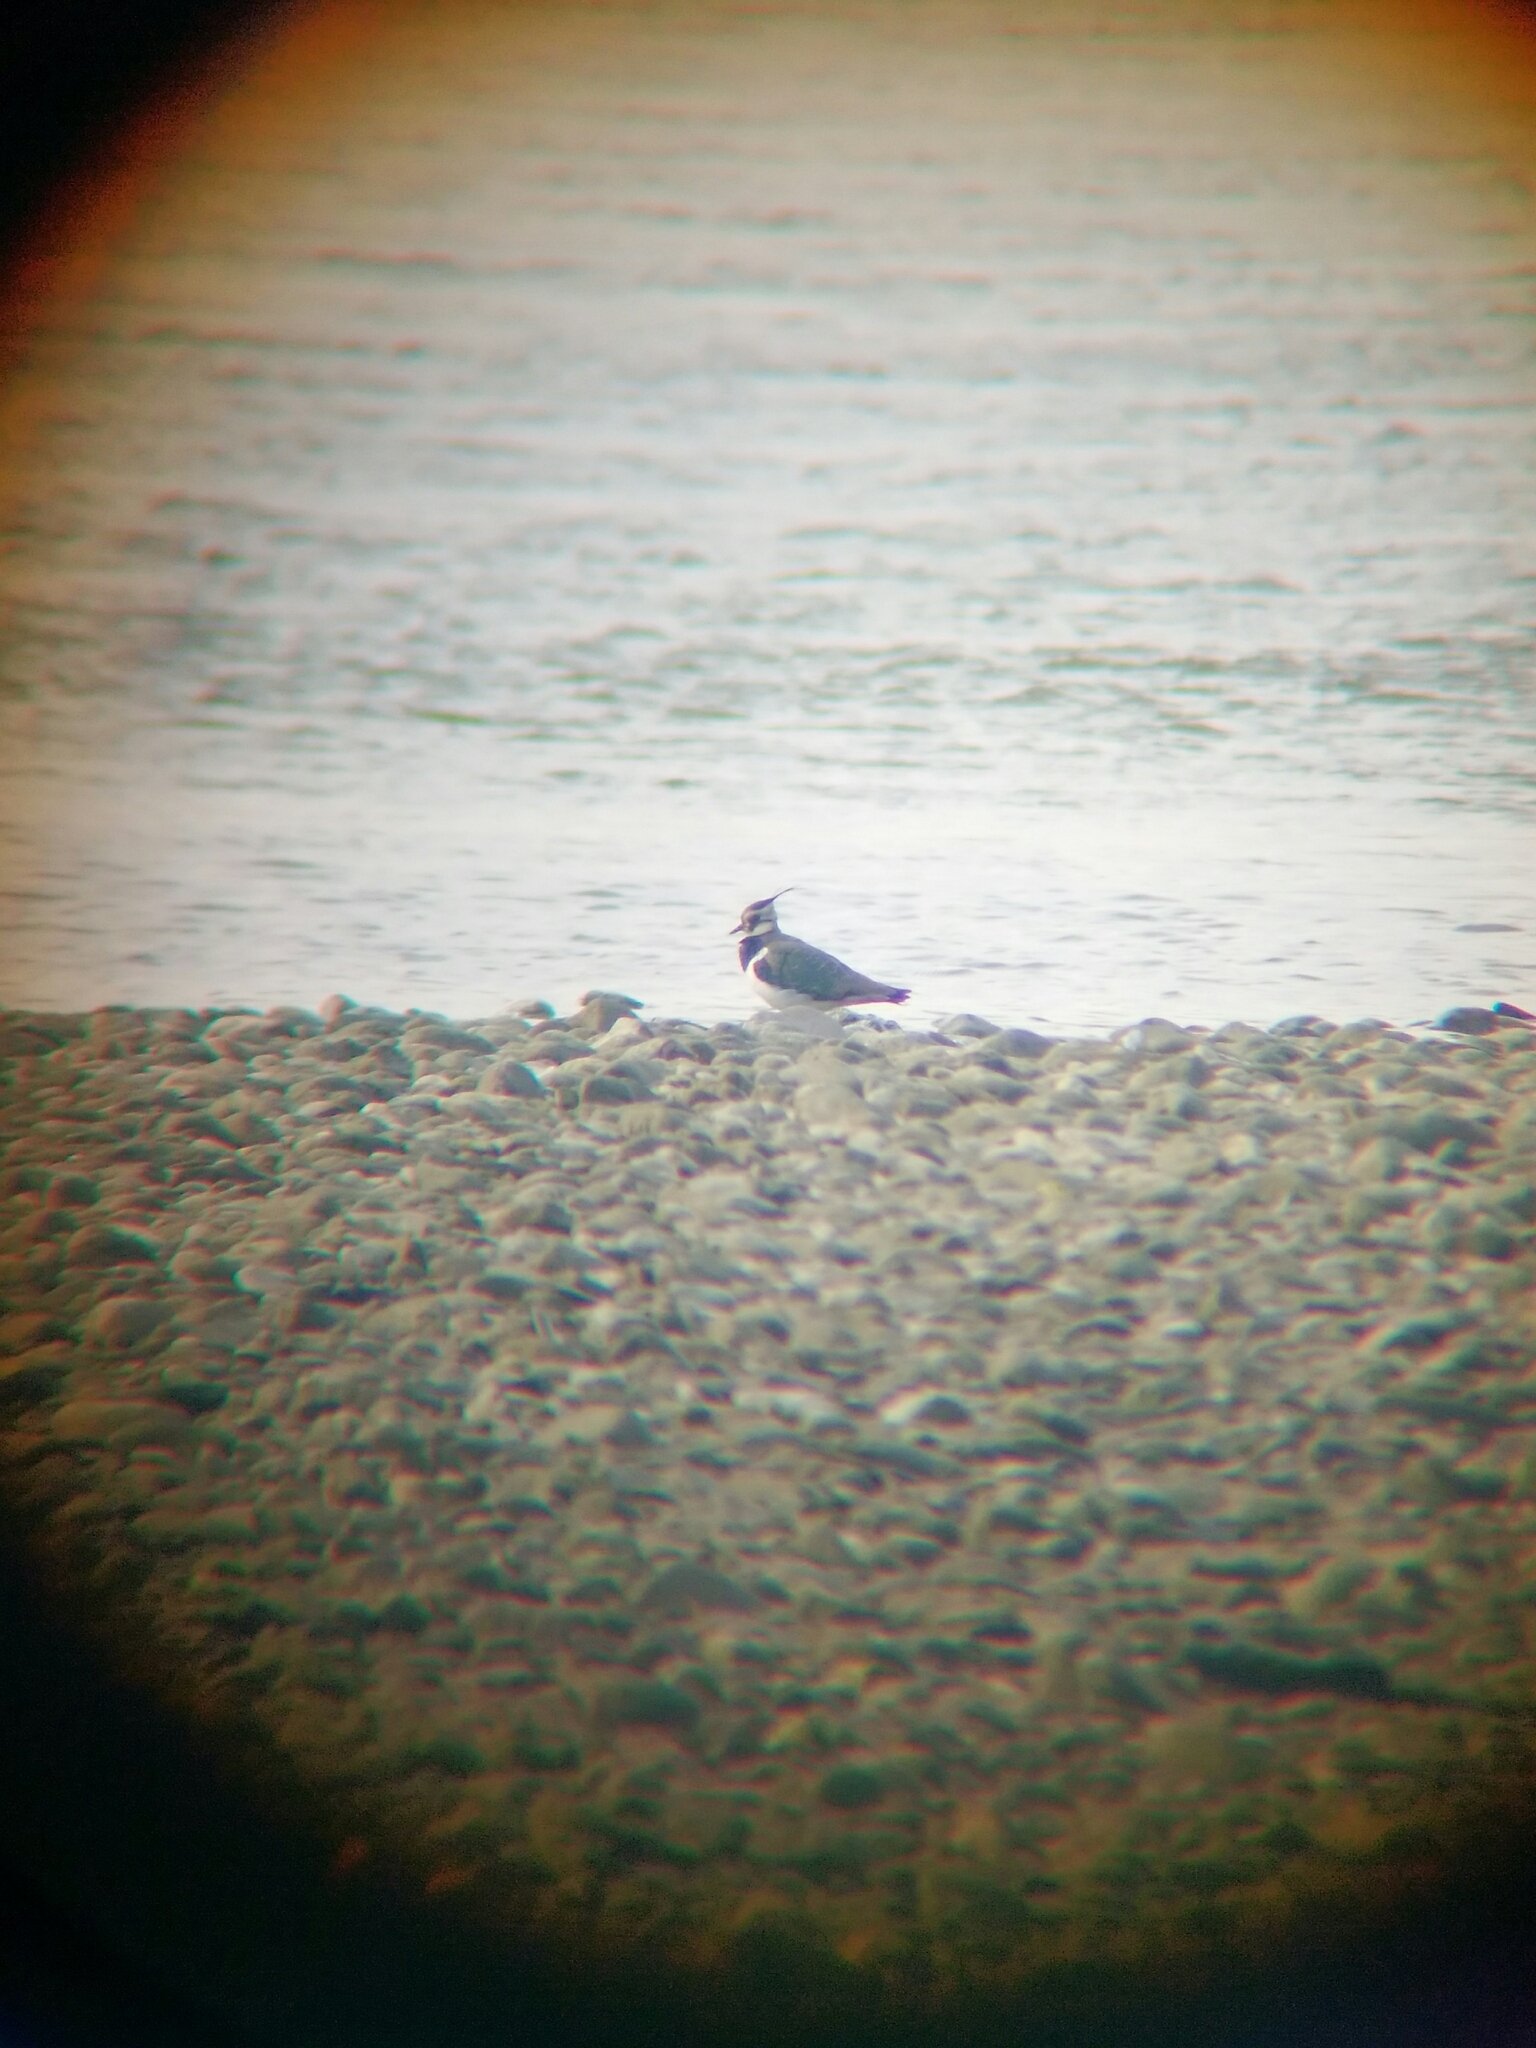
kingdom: Animalia
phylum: Chordata
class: Aves
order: Charadriiformes
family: Charadriidae
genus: Vanellus
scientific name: Vanellus vanellus
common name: Northern lapwing
